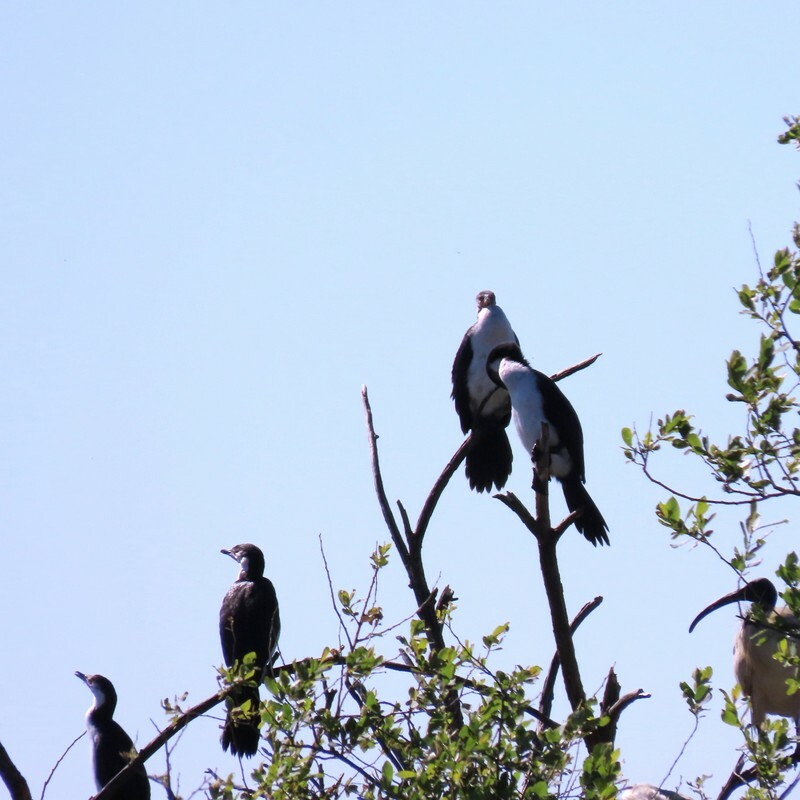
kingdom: Animalia
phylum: Chordata
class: Aves
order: Suliformes
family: Phalacrocoracidae
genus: Microcarbo
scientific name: Microcarbo melanoleucos
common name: Little pied cormorant
